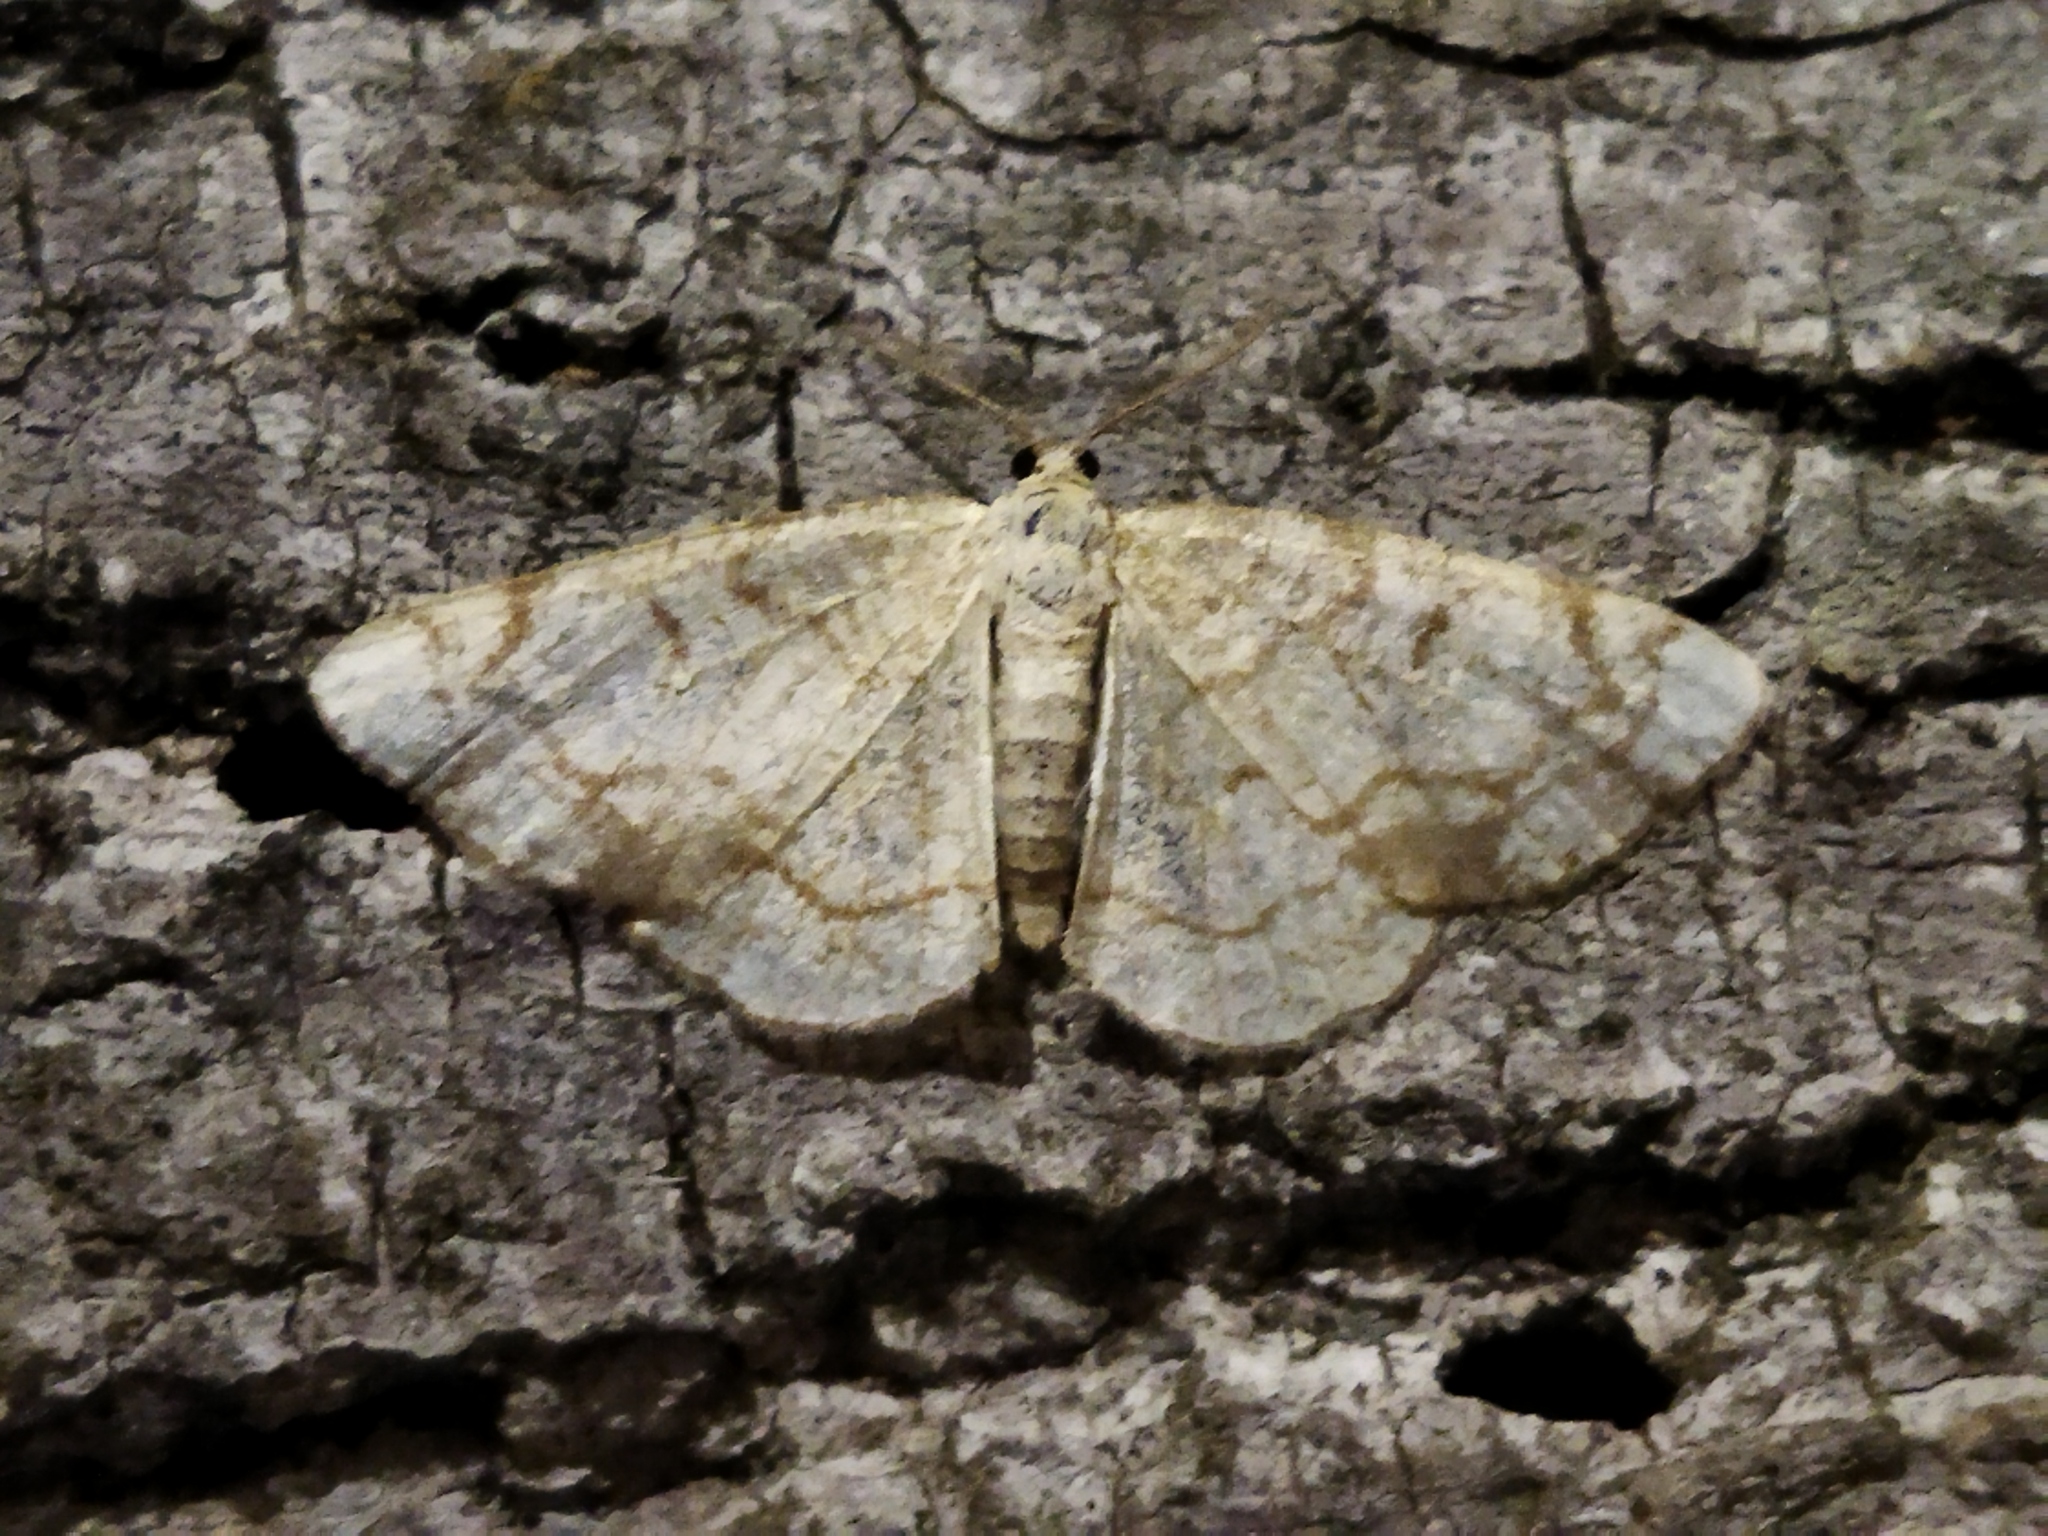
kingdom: Animalia
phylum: Arthropoda
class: Insecta
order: Lepidoptera
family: Geometridae
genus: Stegania
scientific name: Stegania dilectaria
